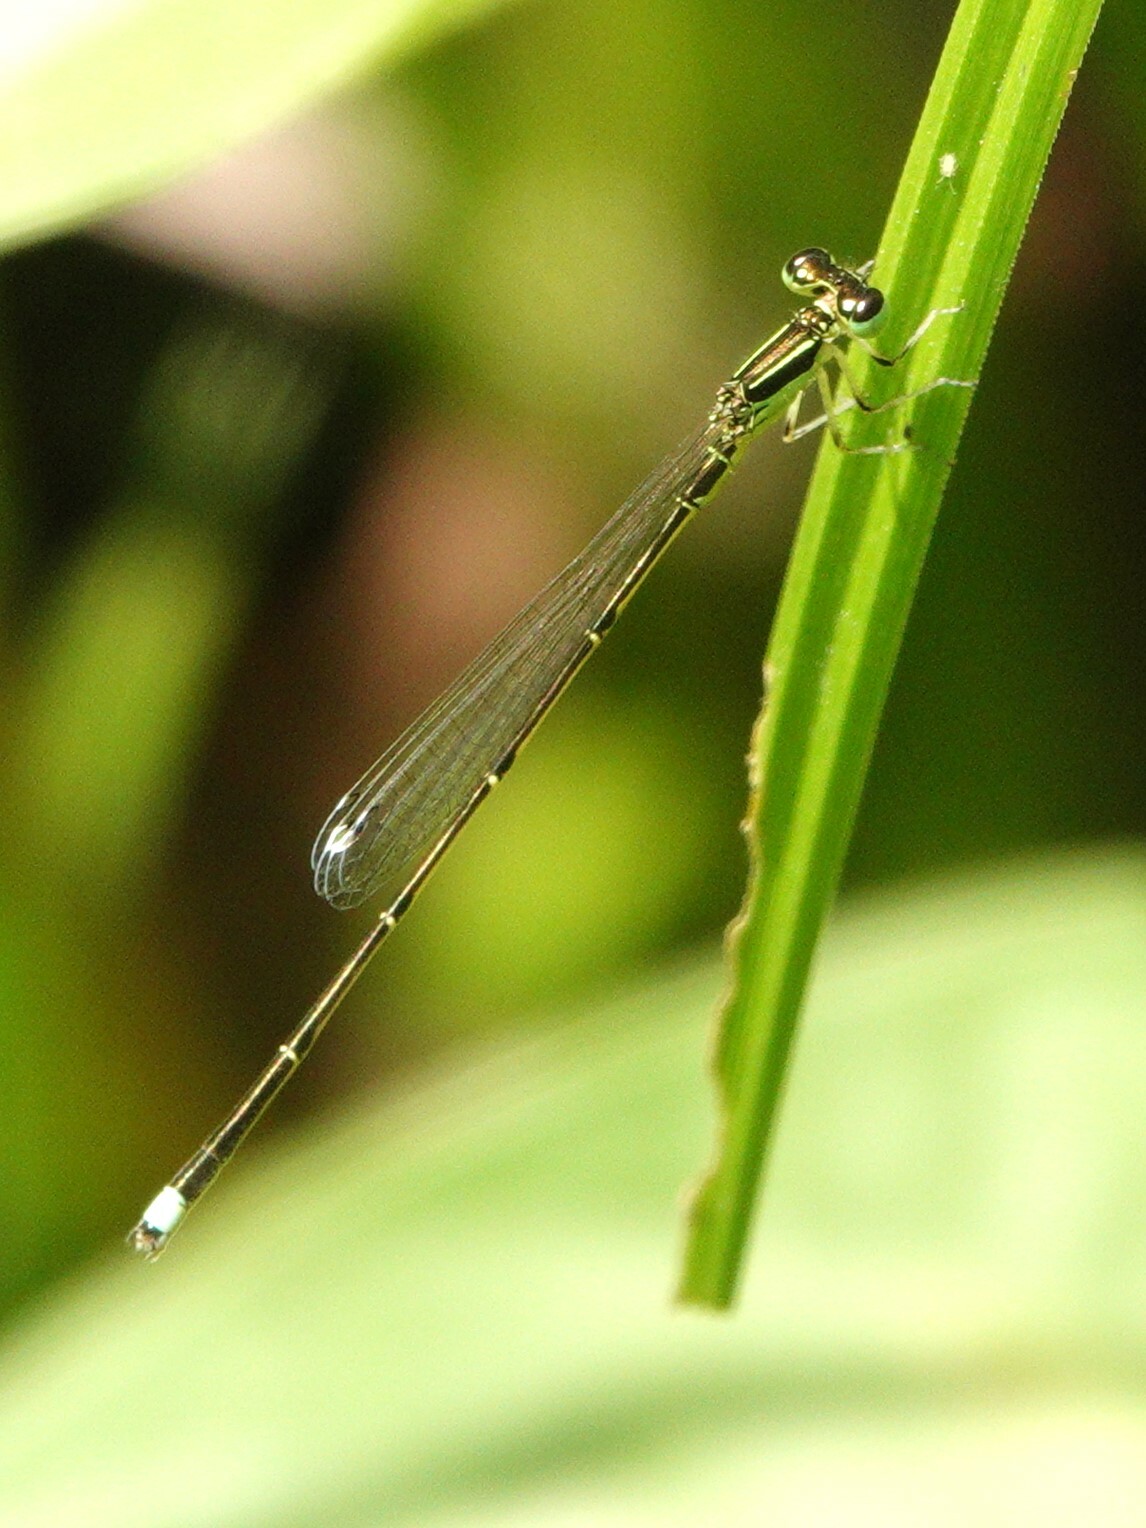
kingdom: Animalia
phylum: Arthropoda
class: Insecta
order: Odonata
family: Coenagrionidae
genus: Ischnura
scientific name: Ischnura prognata
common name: Furtive forktail
